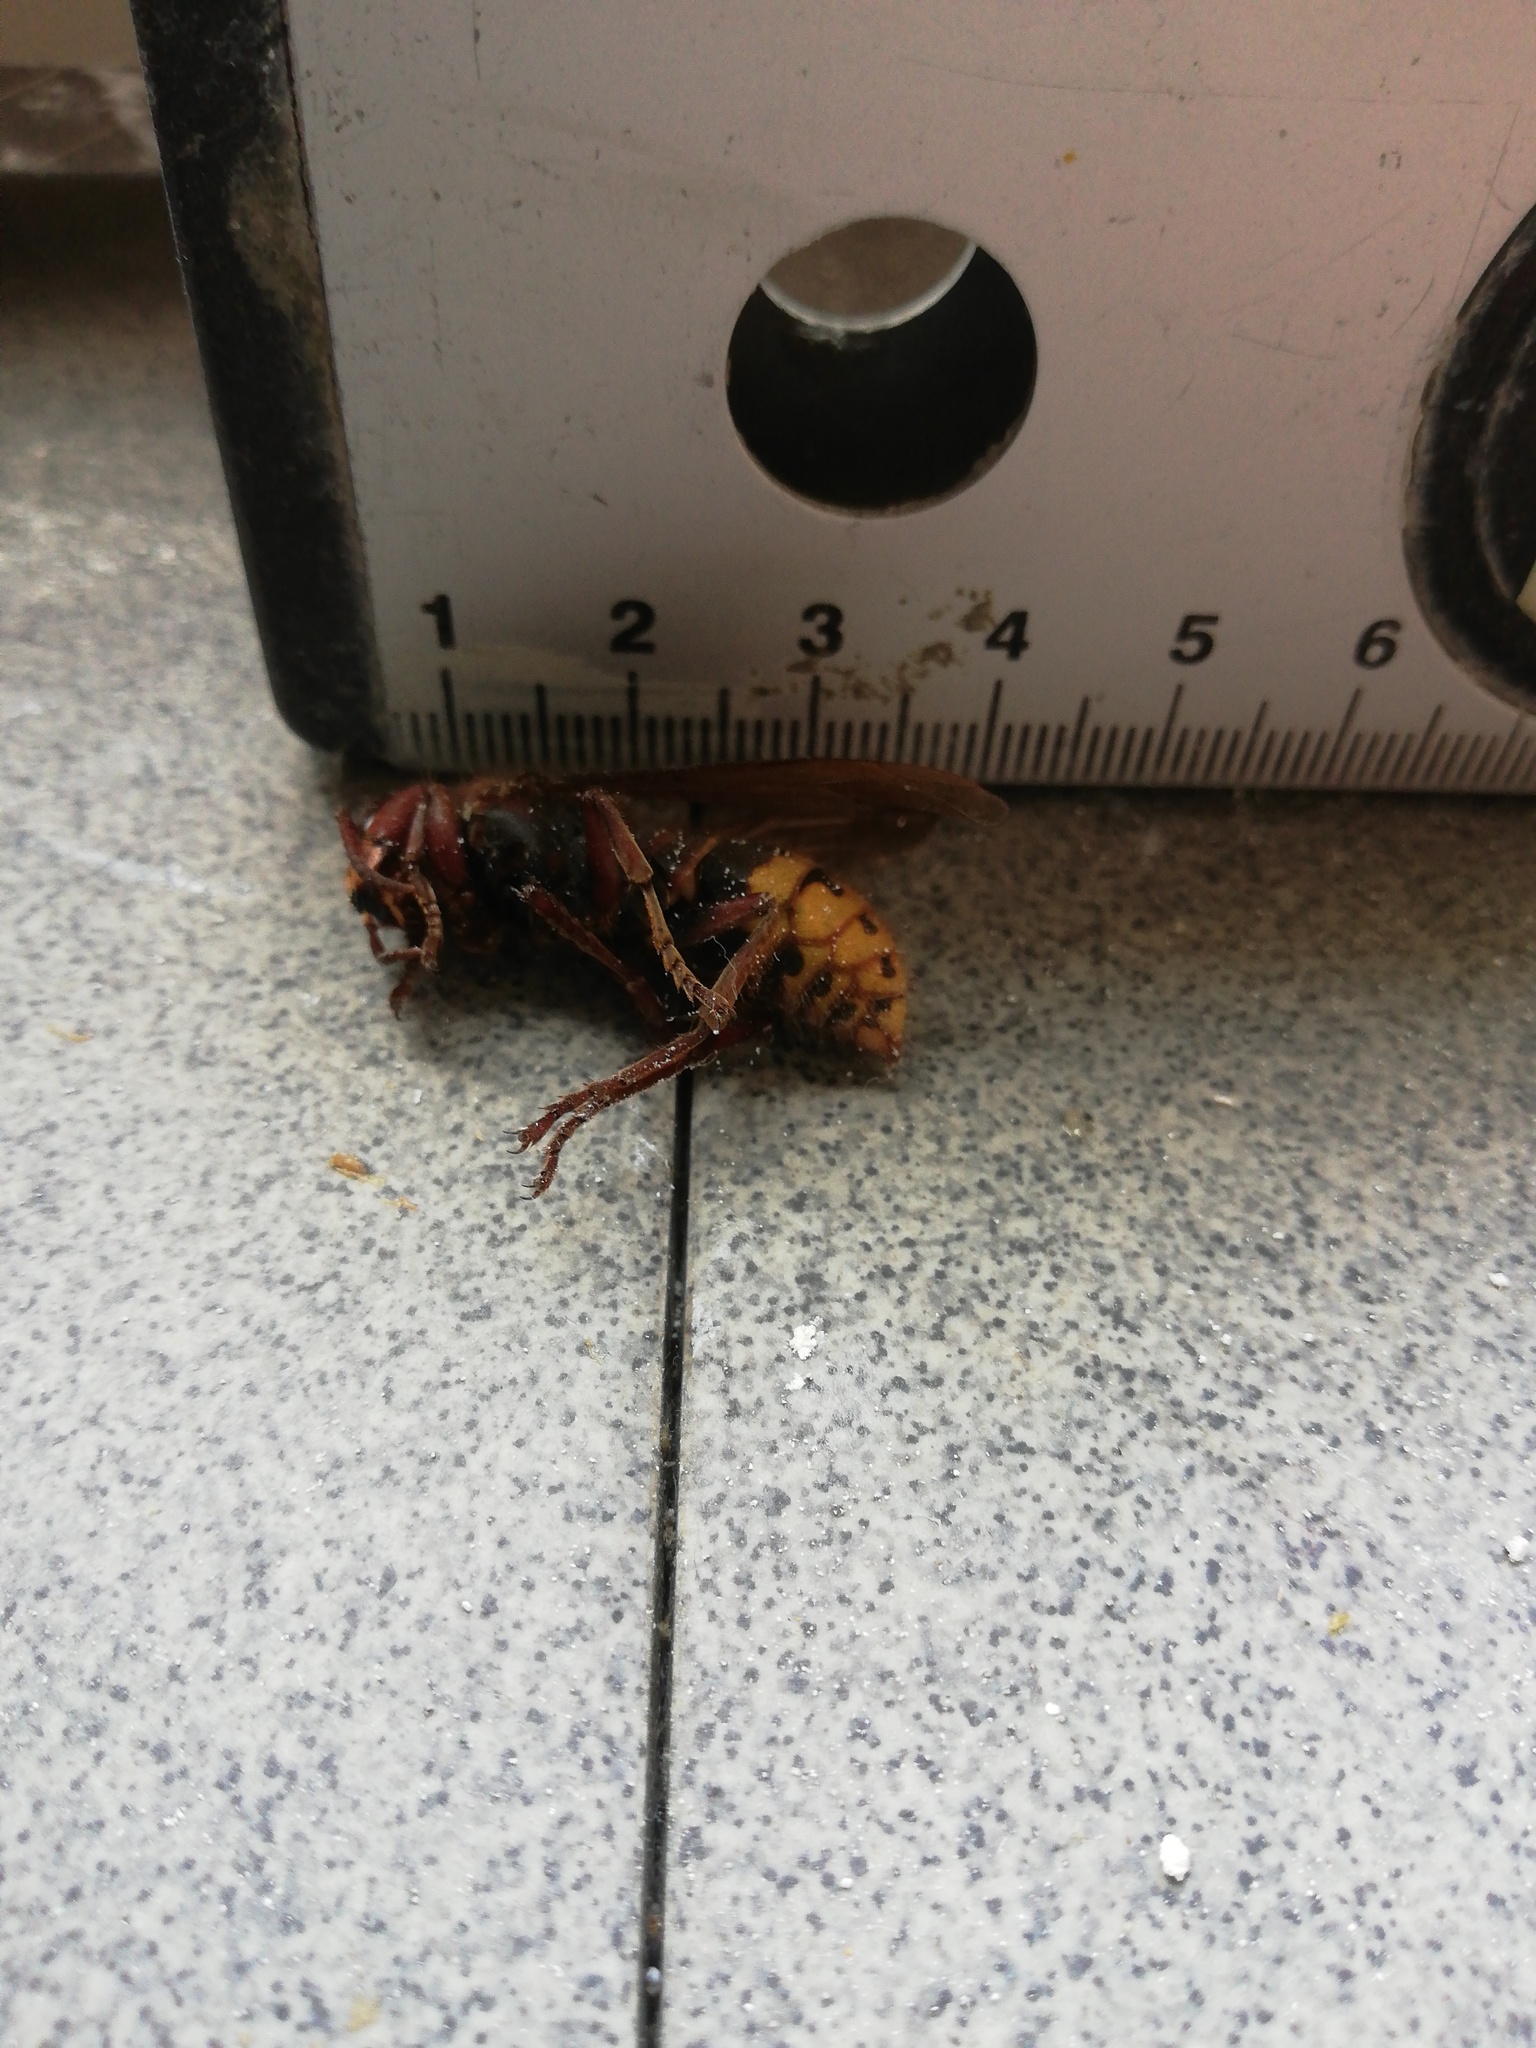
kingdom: Animalia
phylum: Arthropoda
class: Insecta
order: Hymenoptera
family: Vespidae
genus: Vespa
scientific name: Vespa crabro
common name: Hornet
